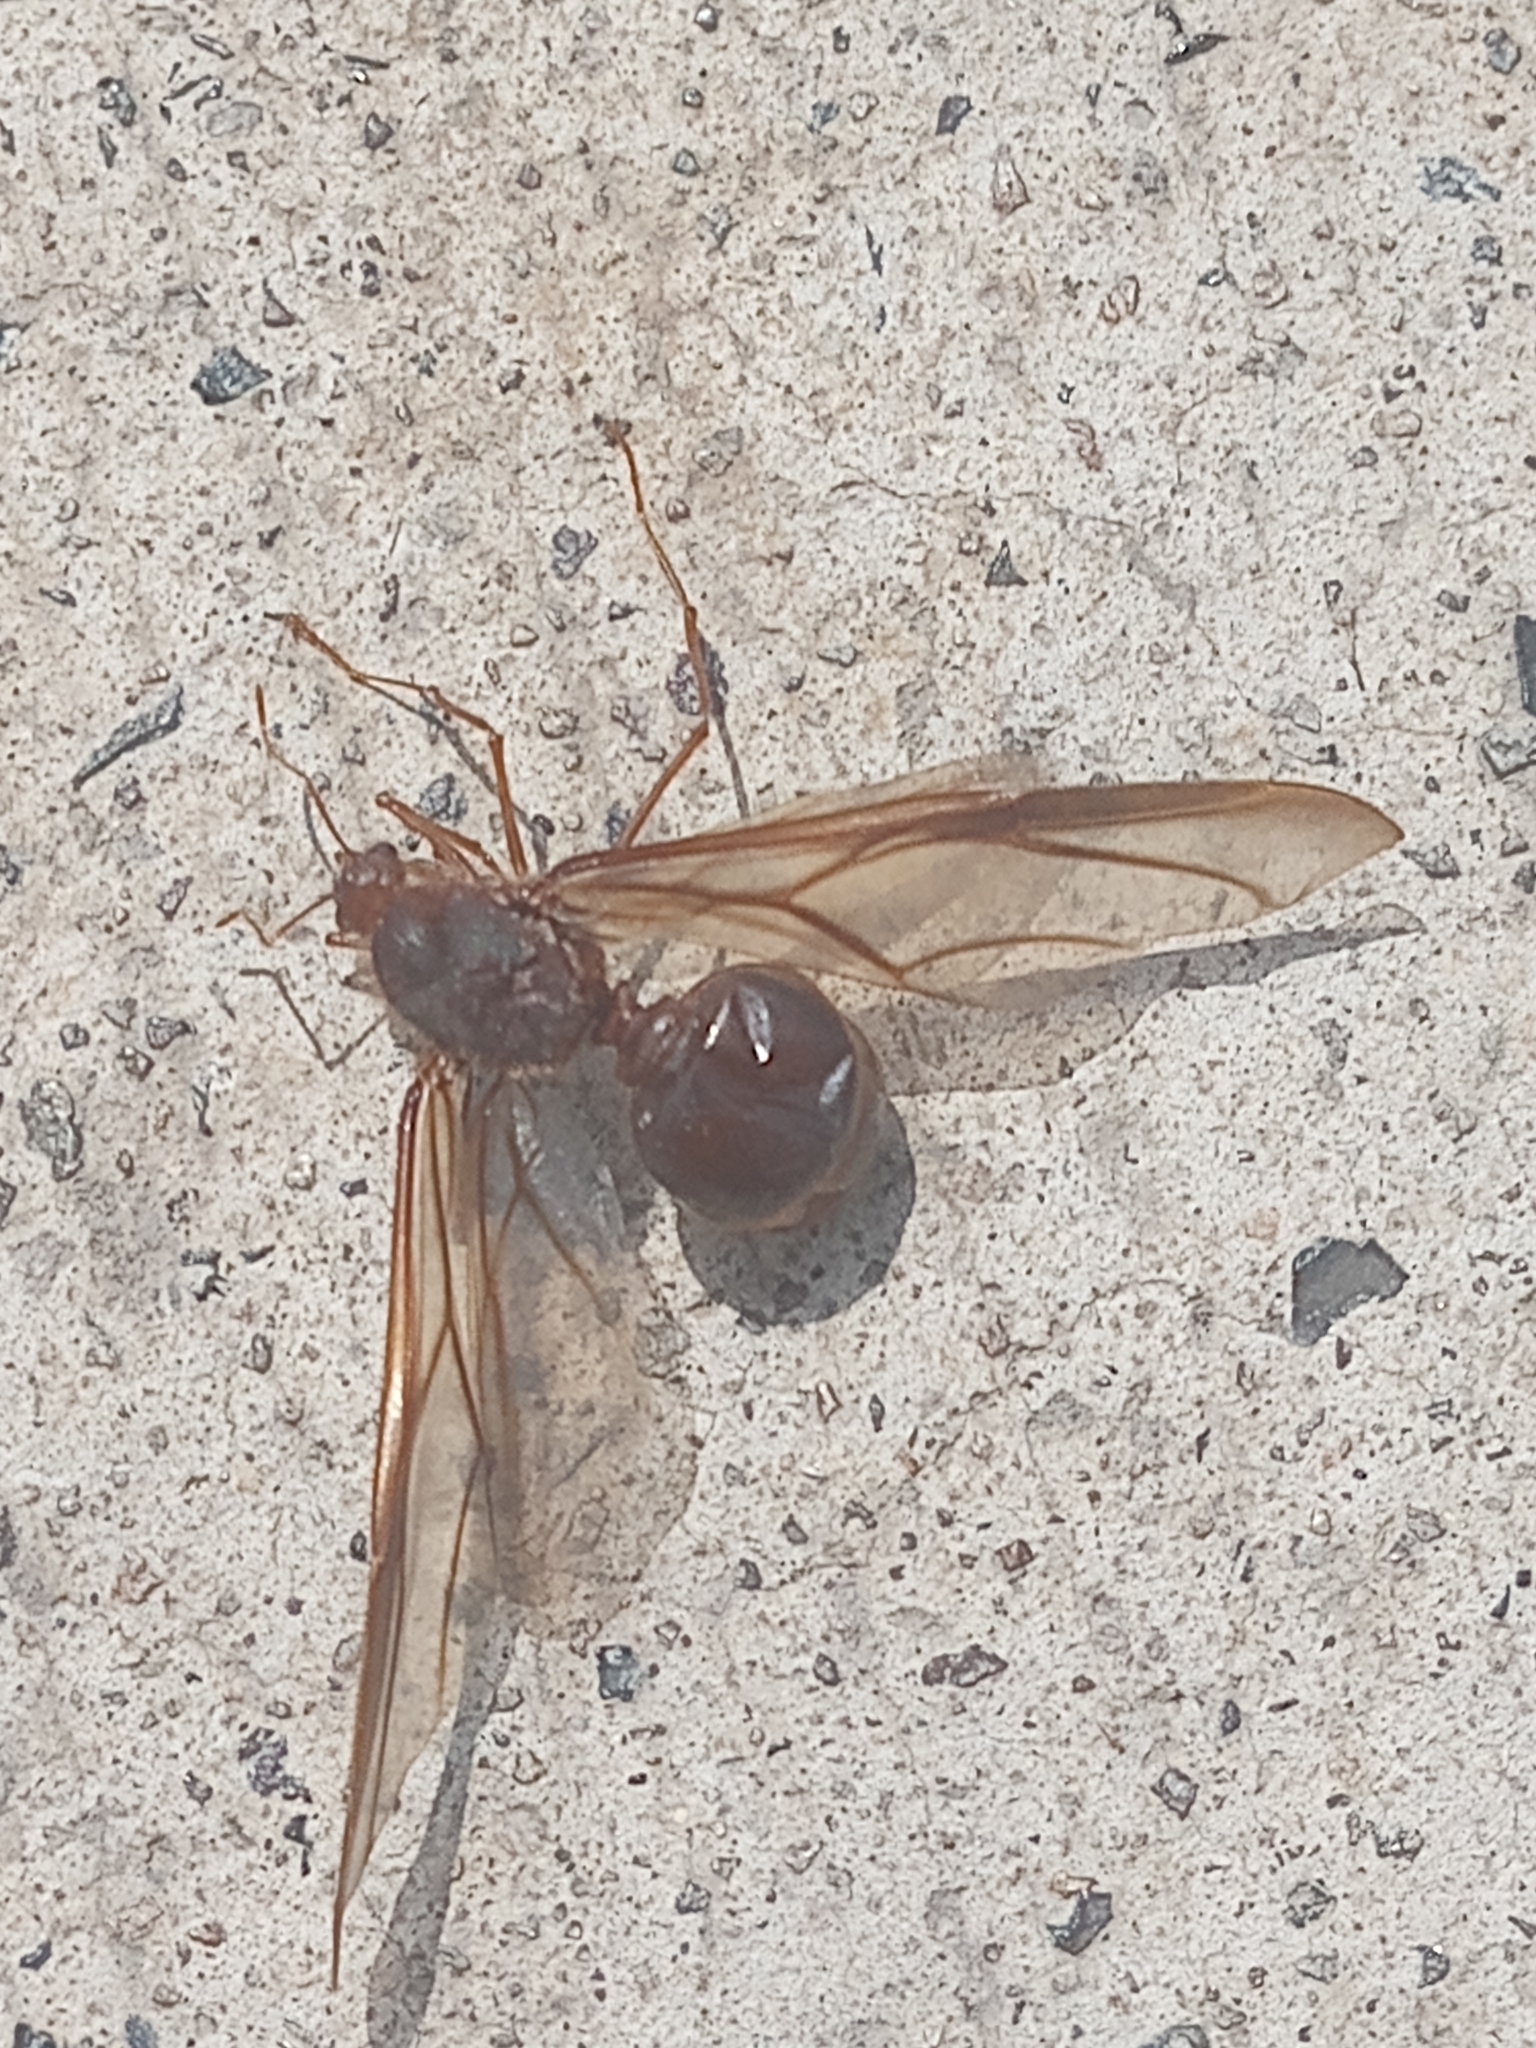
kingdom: Animalia
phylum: Arthropoda
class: Insecta
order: Hymenoptera
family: Formicidae
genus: Atta
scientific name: Atta mexicana
